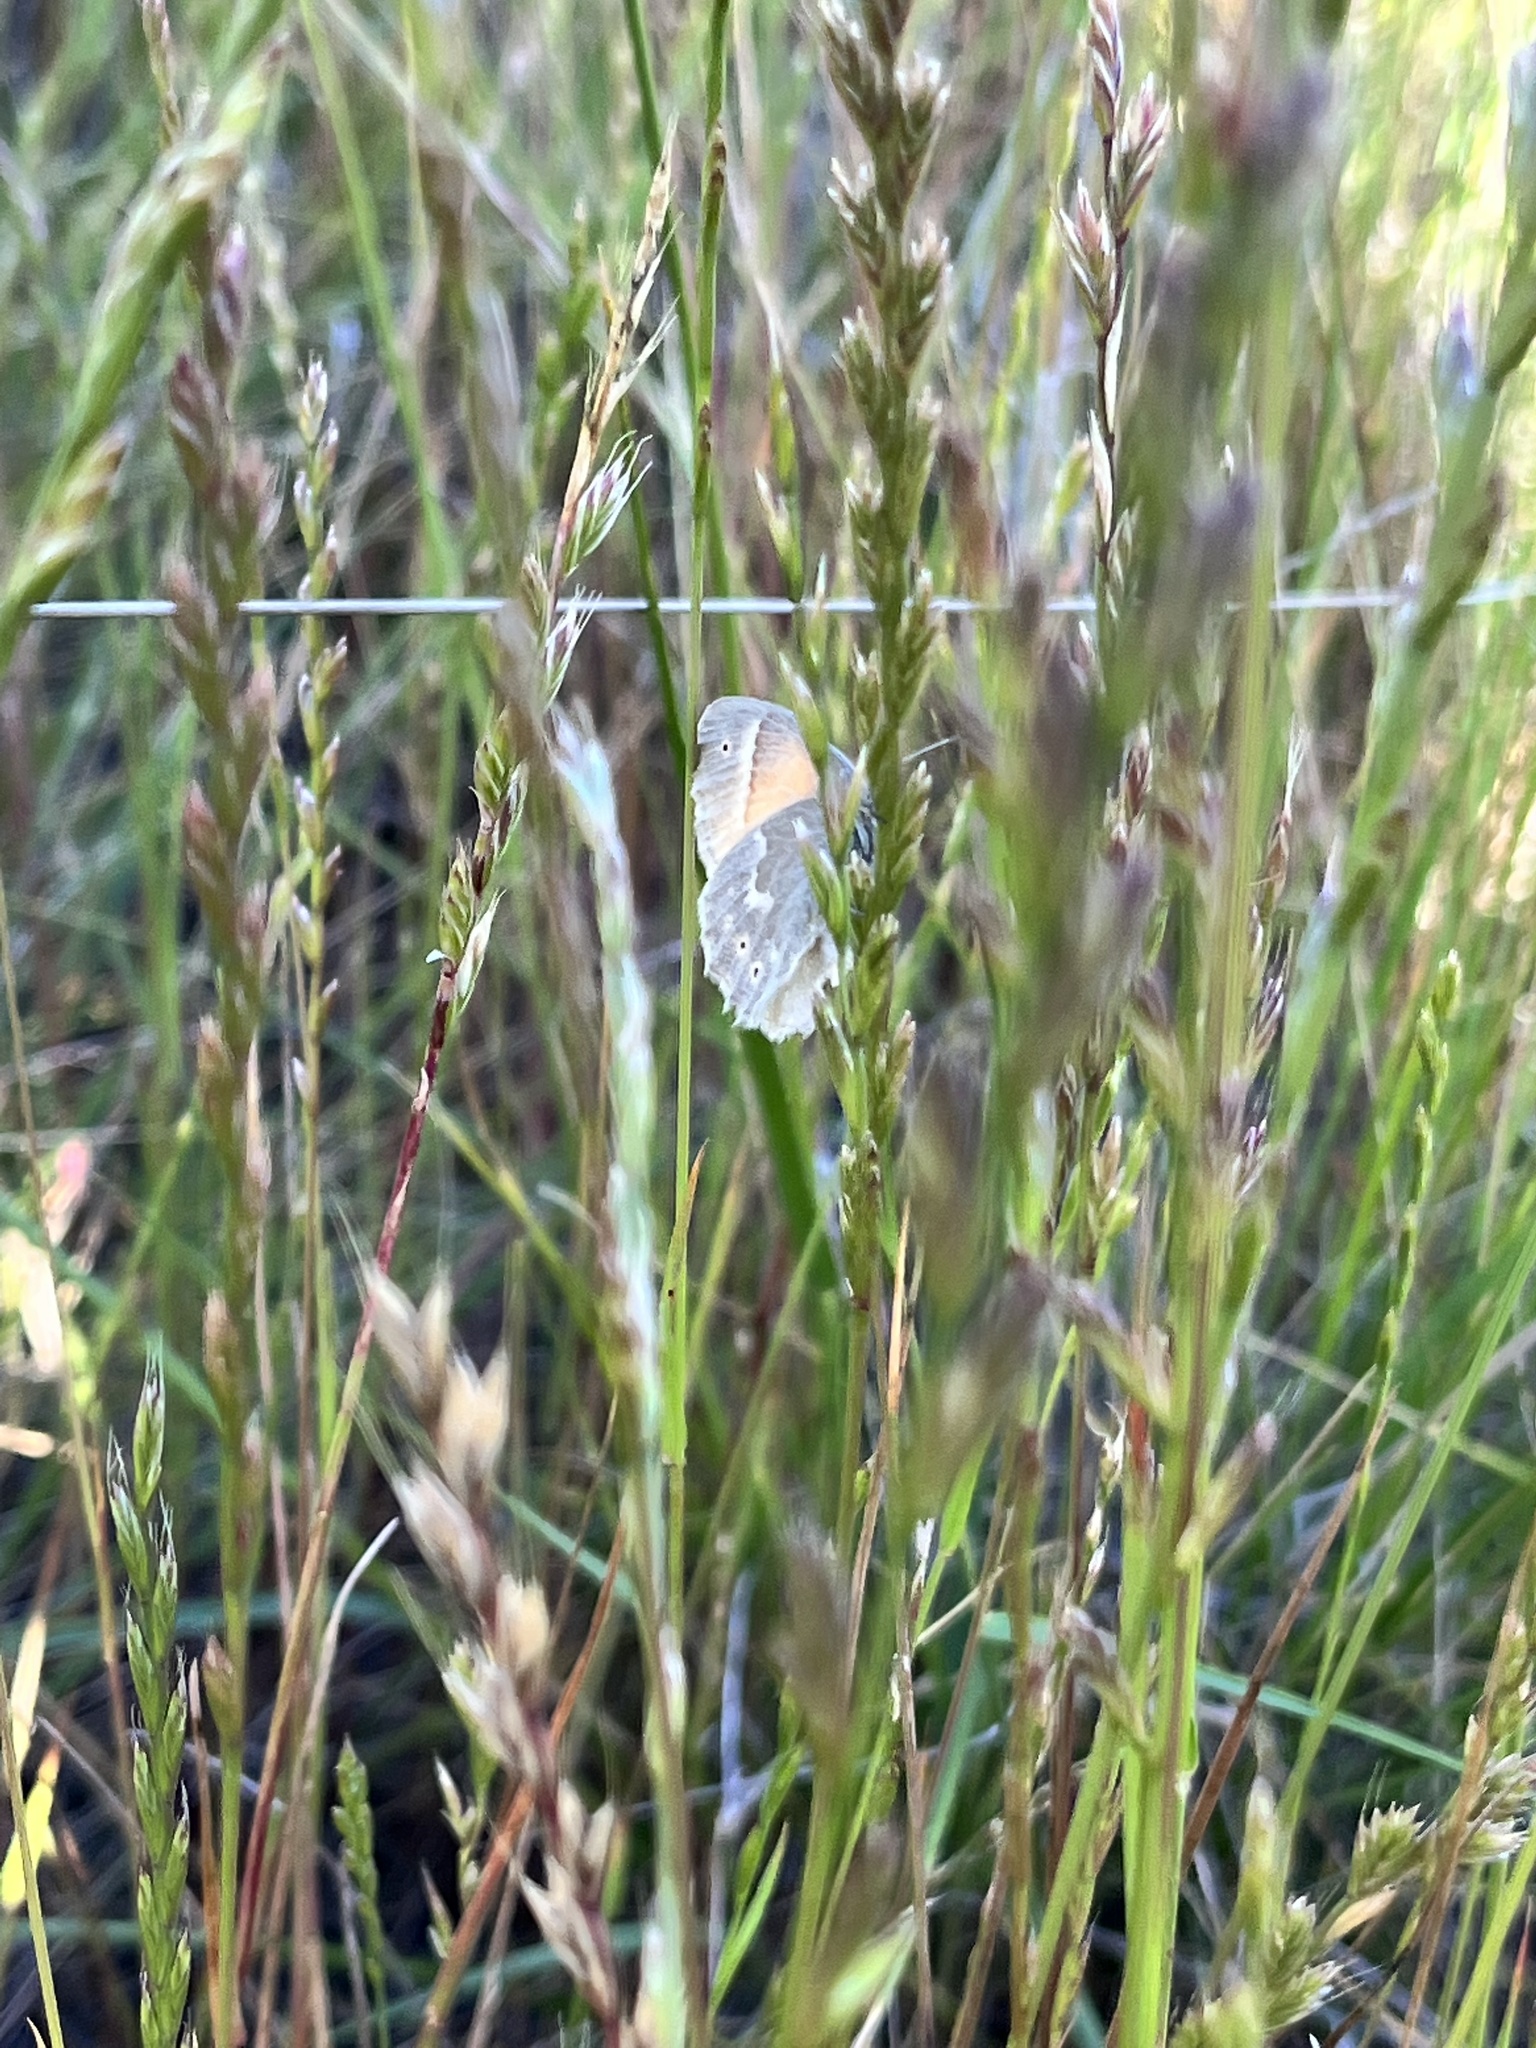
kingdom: Animalia
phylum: Arthropoda
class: Insecta
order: Lepidoptera
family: Nymphalidae
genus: Coenonympha
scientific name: Coenonympha california
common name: Common ringlet
